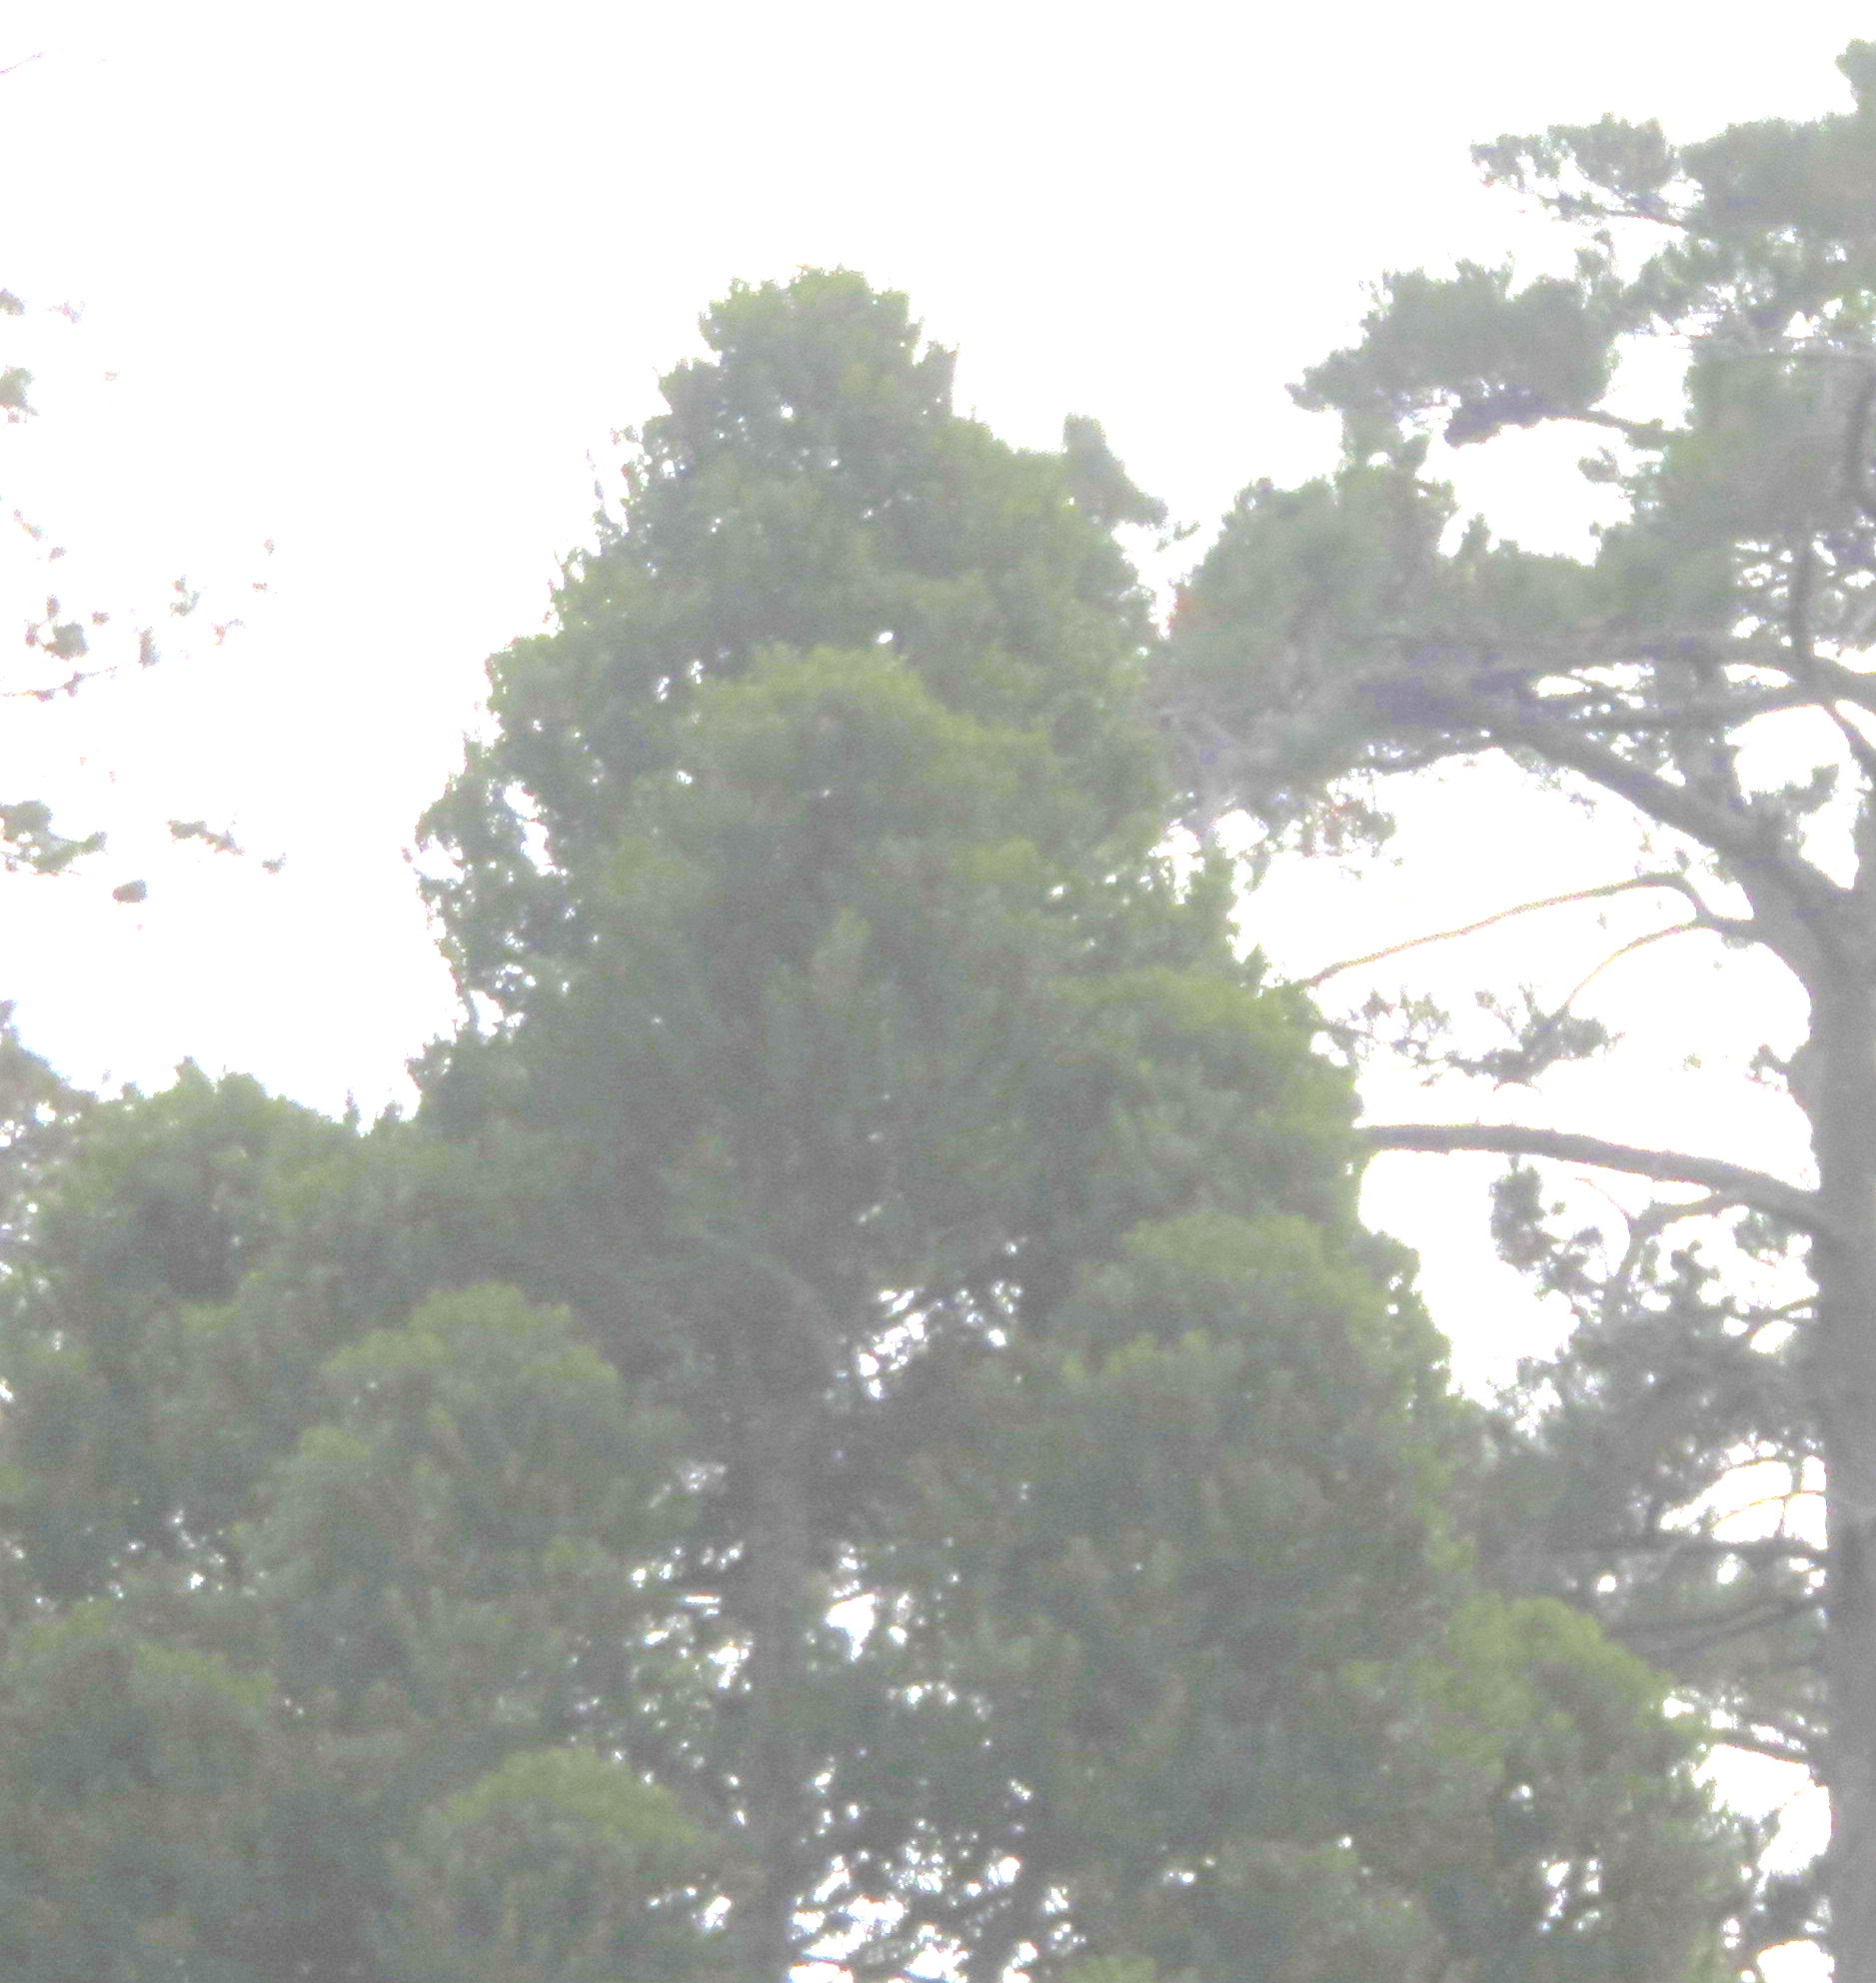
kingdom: Plantae
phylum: Tracheophyta
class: Pinopsida
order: Pinales
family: Araucariaceae
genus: Agathis
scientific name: Agathis australis
